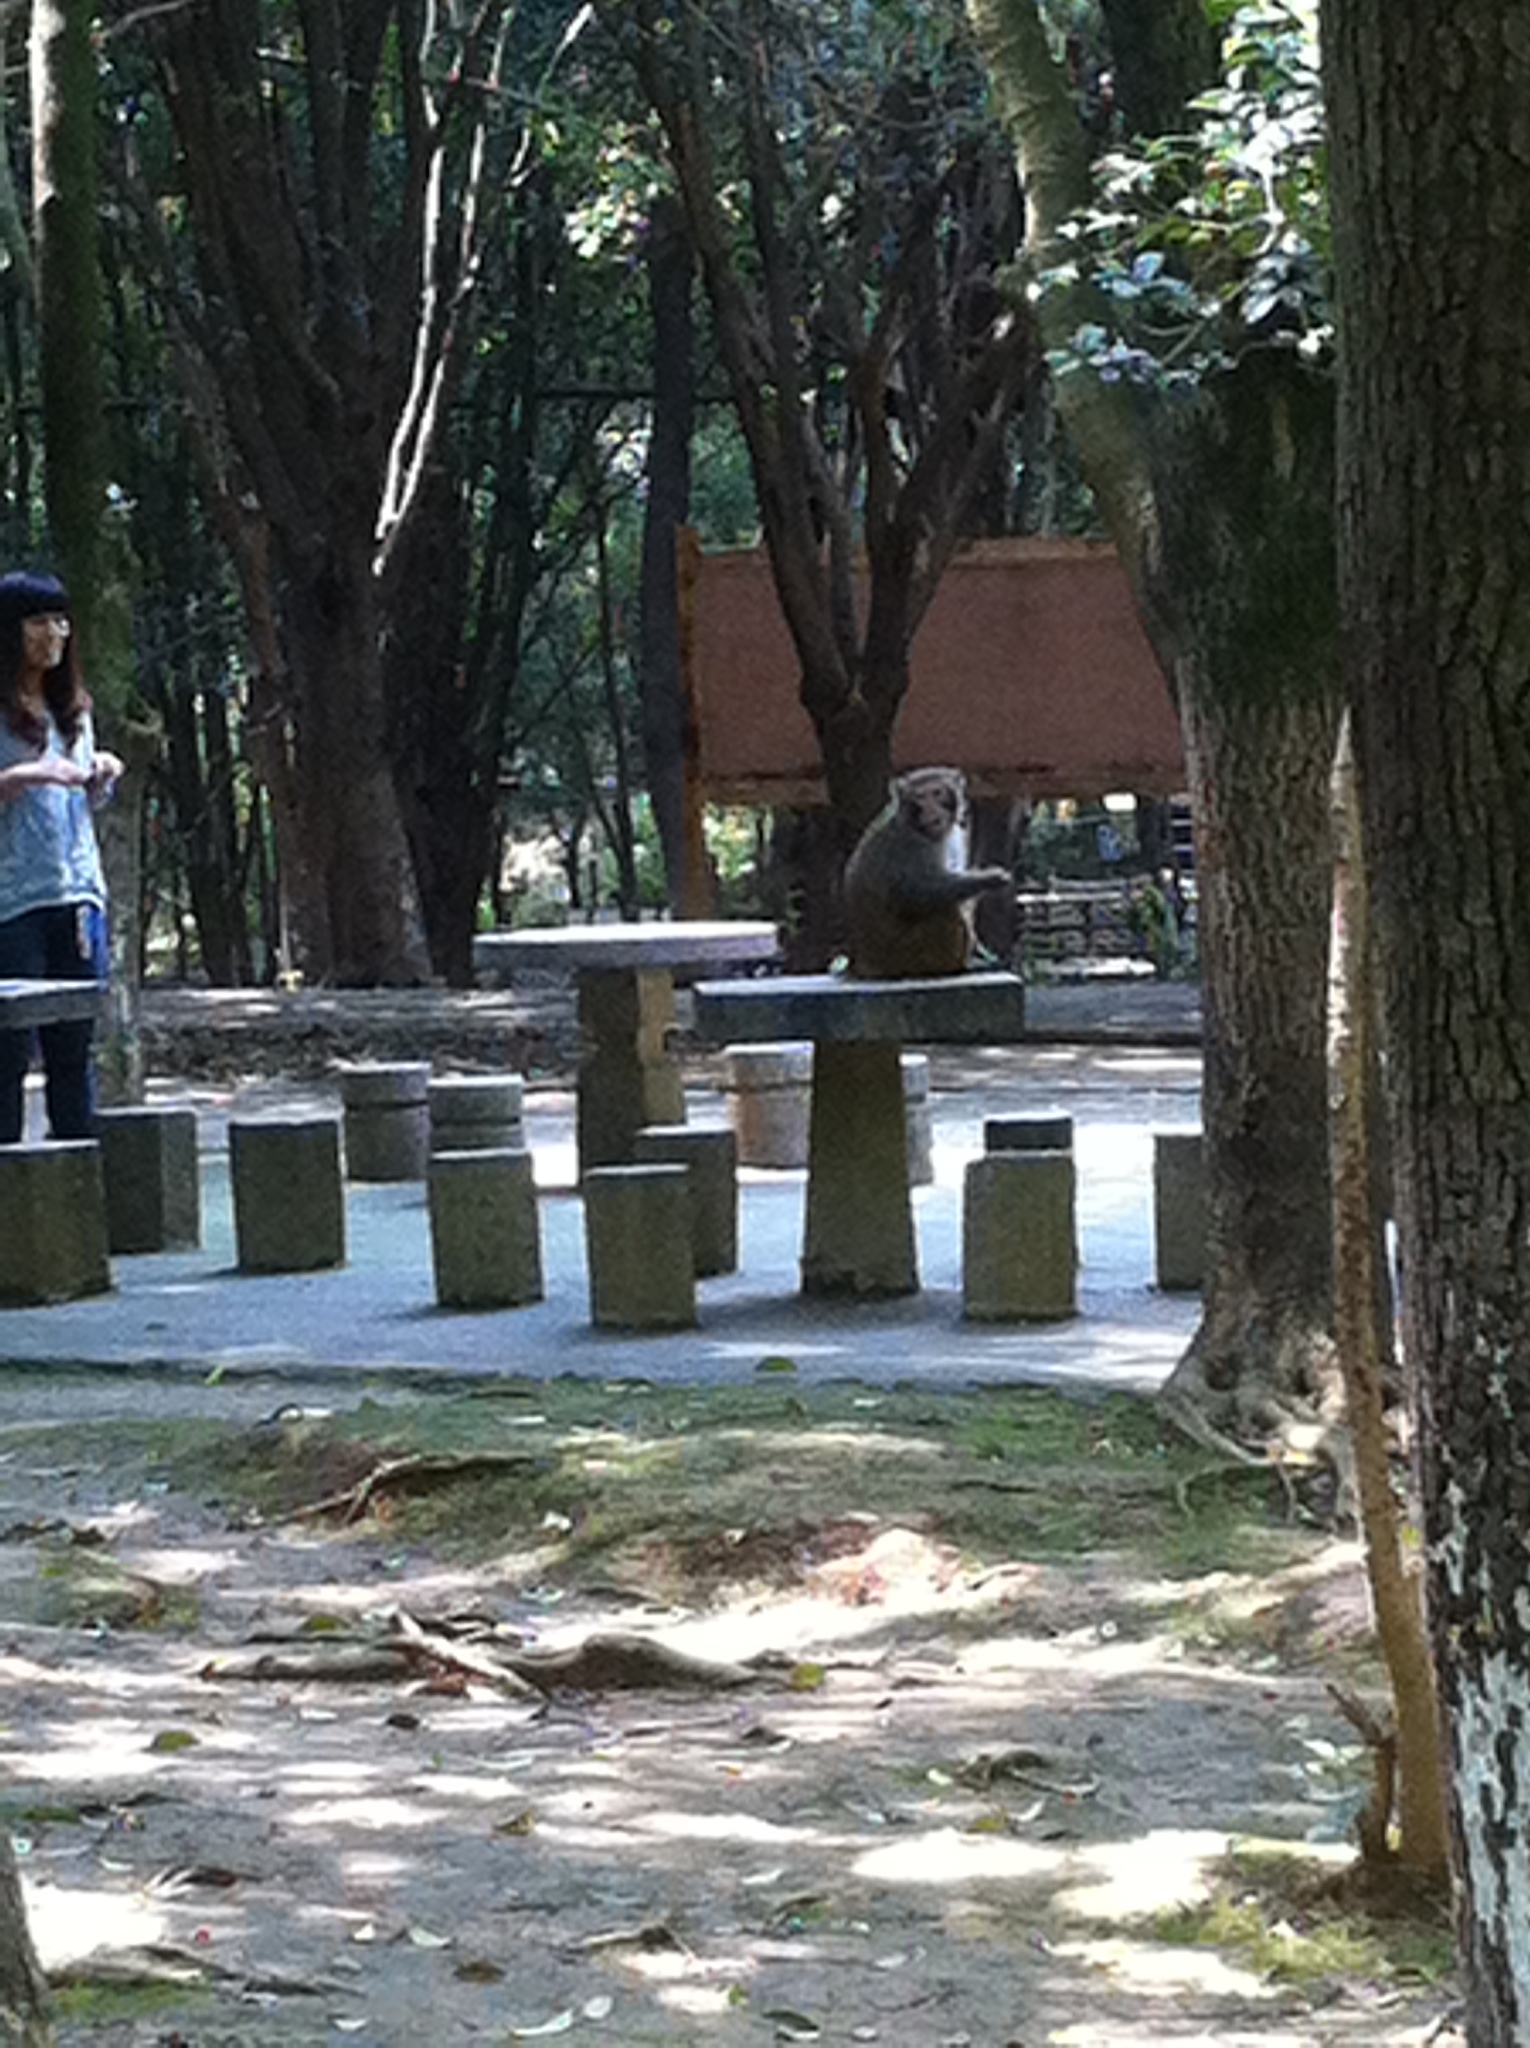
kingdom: Animalia
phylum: Chordata
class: Mammalia
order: Primates
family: Cercopithecidae
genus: Macaca
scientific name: Macaca mulatta
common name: Rhesus monkey
